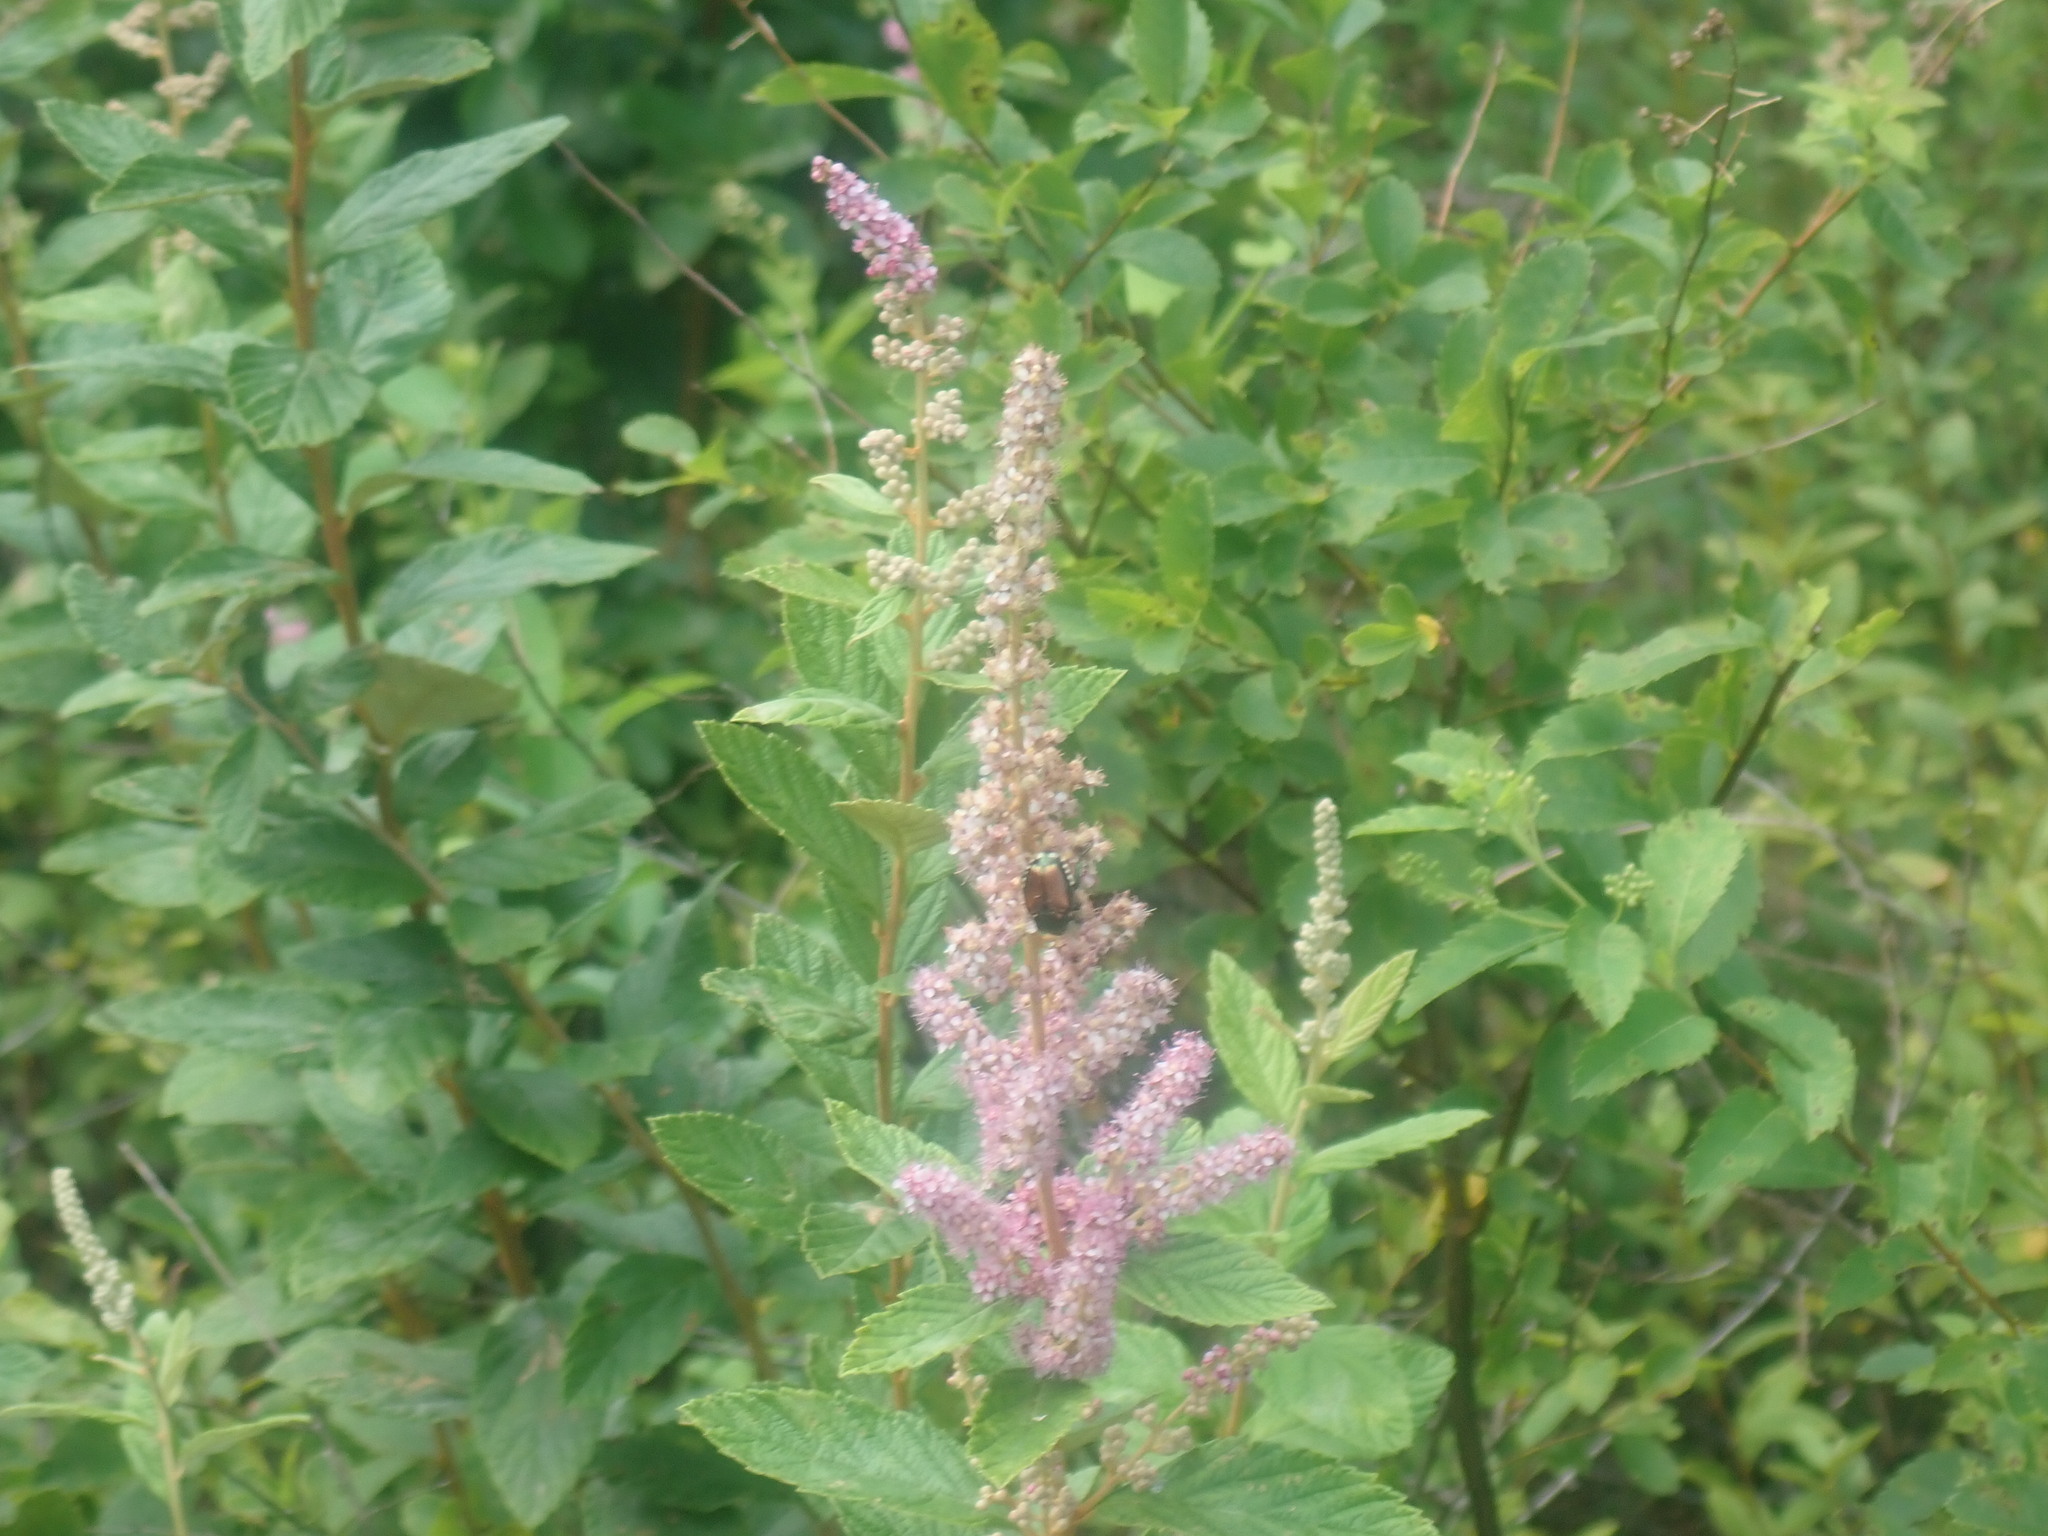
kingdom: Plantae
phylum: Tracheophyta
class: Magnoliopsida
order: Rosales
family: Rosaceae
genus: Spiraea
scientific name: Spiraea tomentosa
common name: Hardhack
